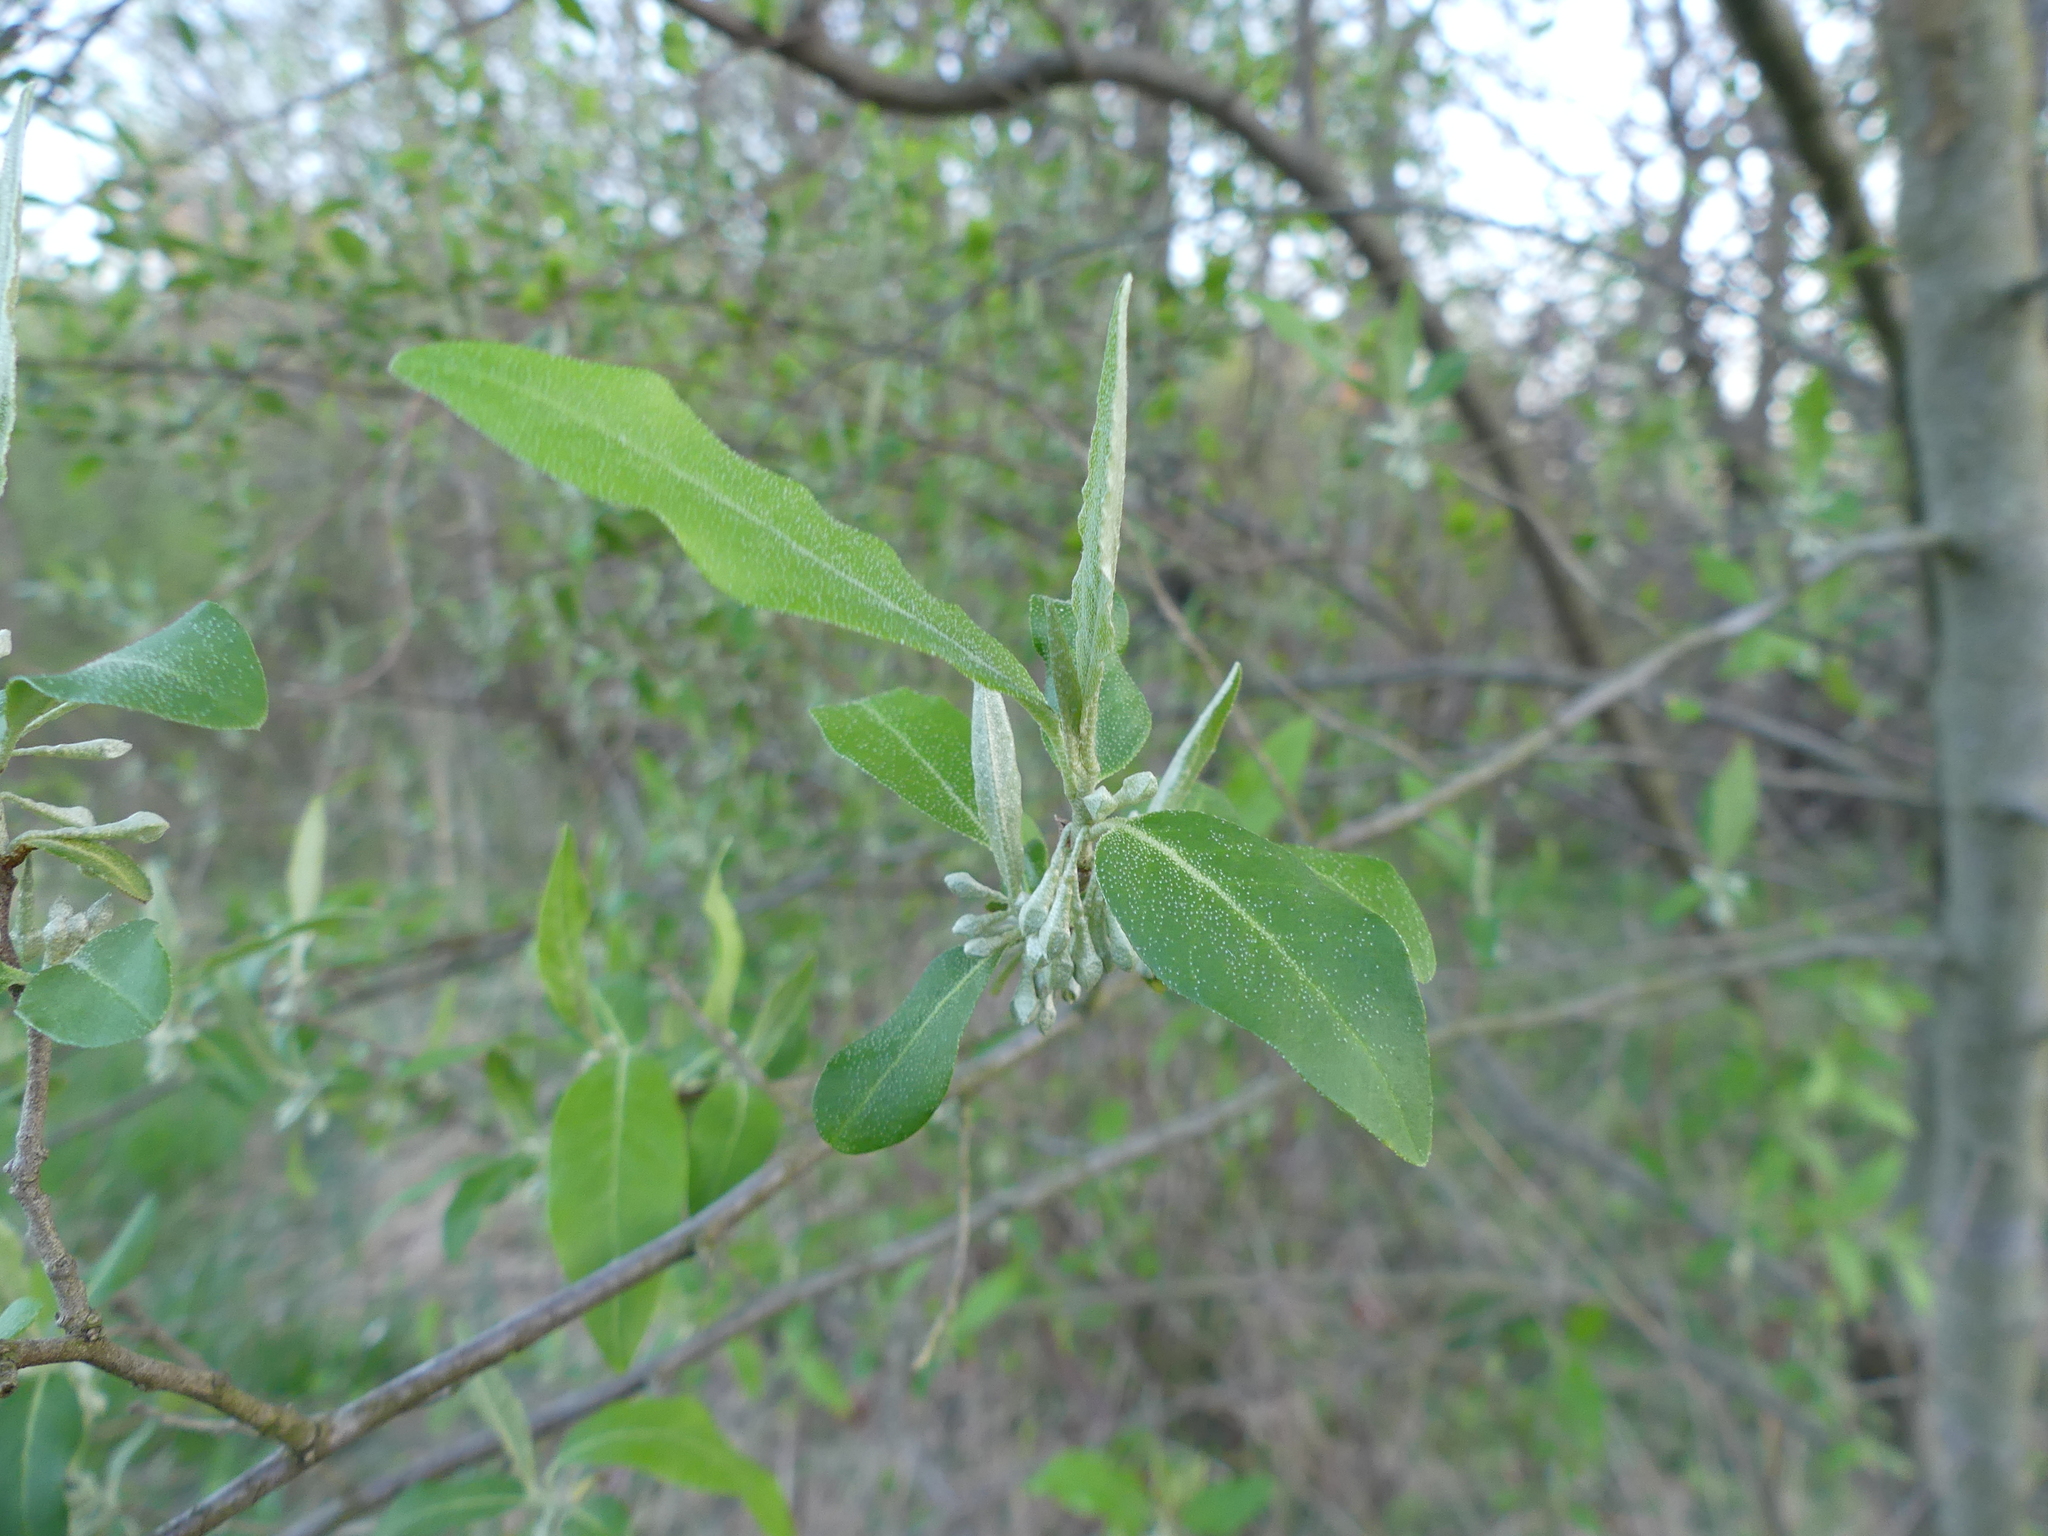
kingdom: Plantae
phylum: Tracheophyta
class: Magnoliopsida
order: Rosales
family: Elaeagnaceae
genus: Elaeagnus
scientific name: Elaeagnus umbellata
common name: Autumn olive
